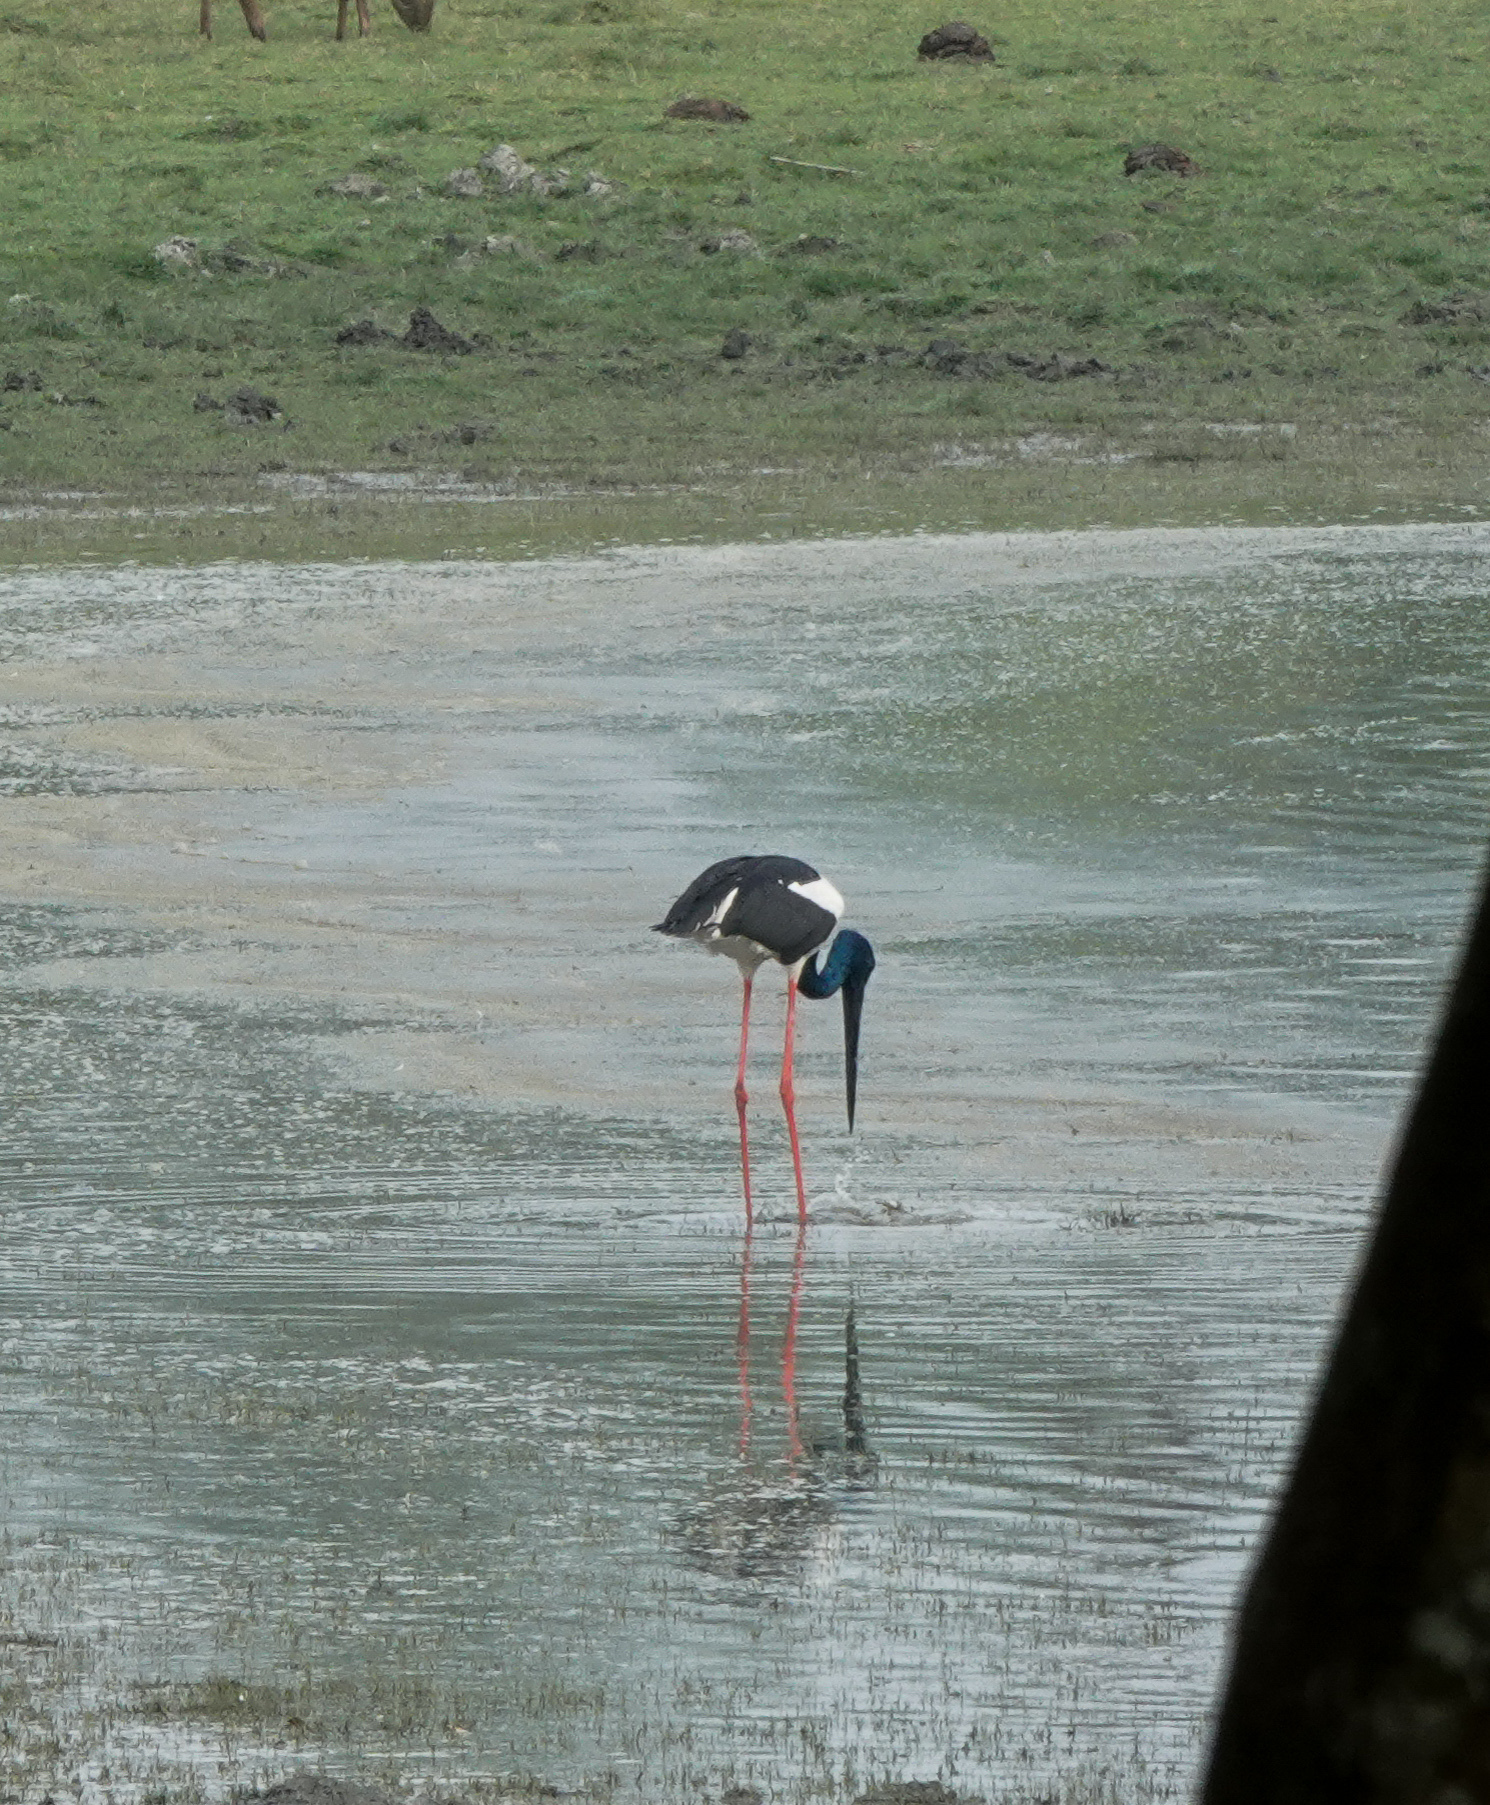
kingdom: Animalia
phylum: Chordata
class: Aves
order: Ciconiiformes
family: Ciconiidae
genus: Ephippiorhynchus
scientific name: Ephippiorhynchus asiaticus
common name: Black-necked stork
